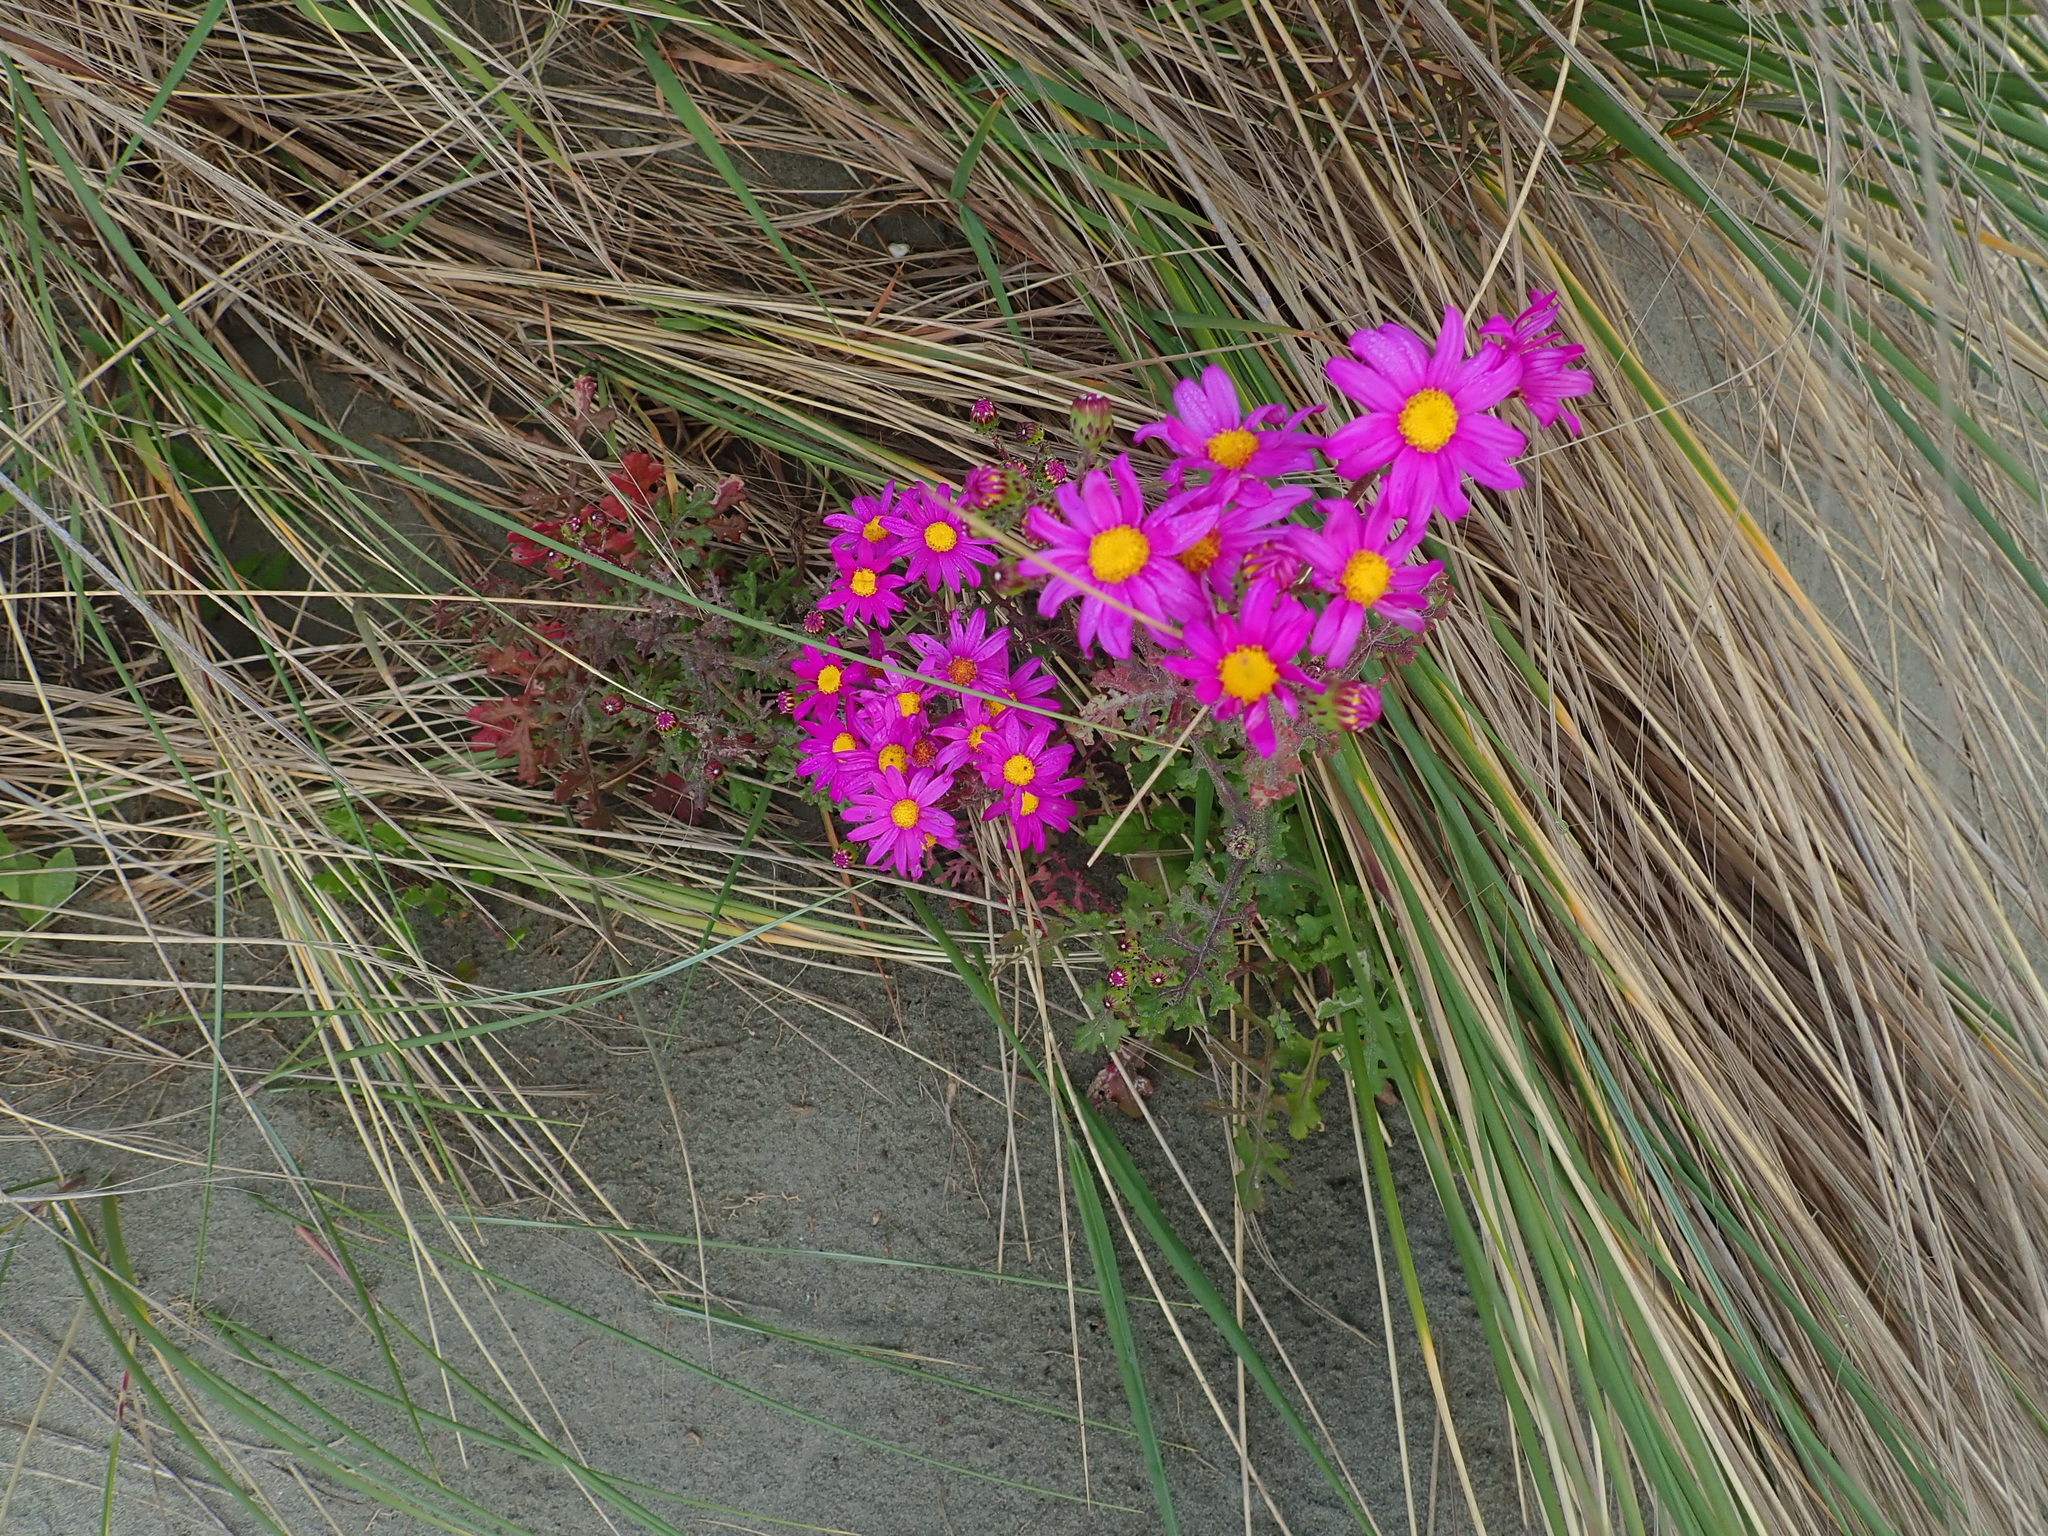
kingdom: Plantae
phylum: Tracheophyta
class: Magnoliopsida
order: Asterales
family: Asteraceae
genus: Senecio
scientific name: Senecio elegans
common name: Purple groundsel
